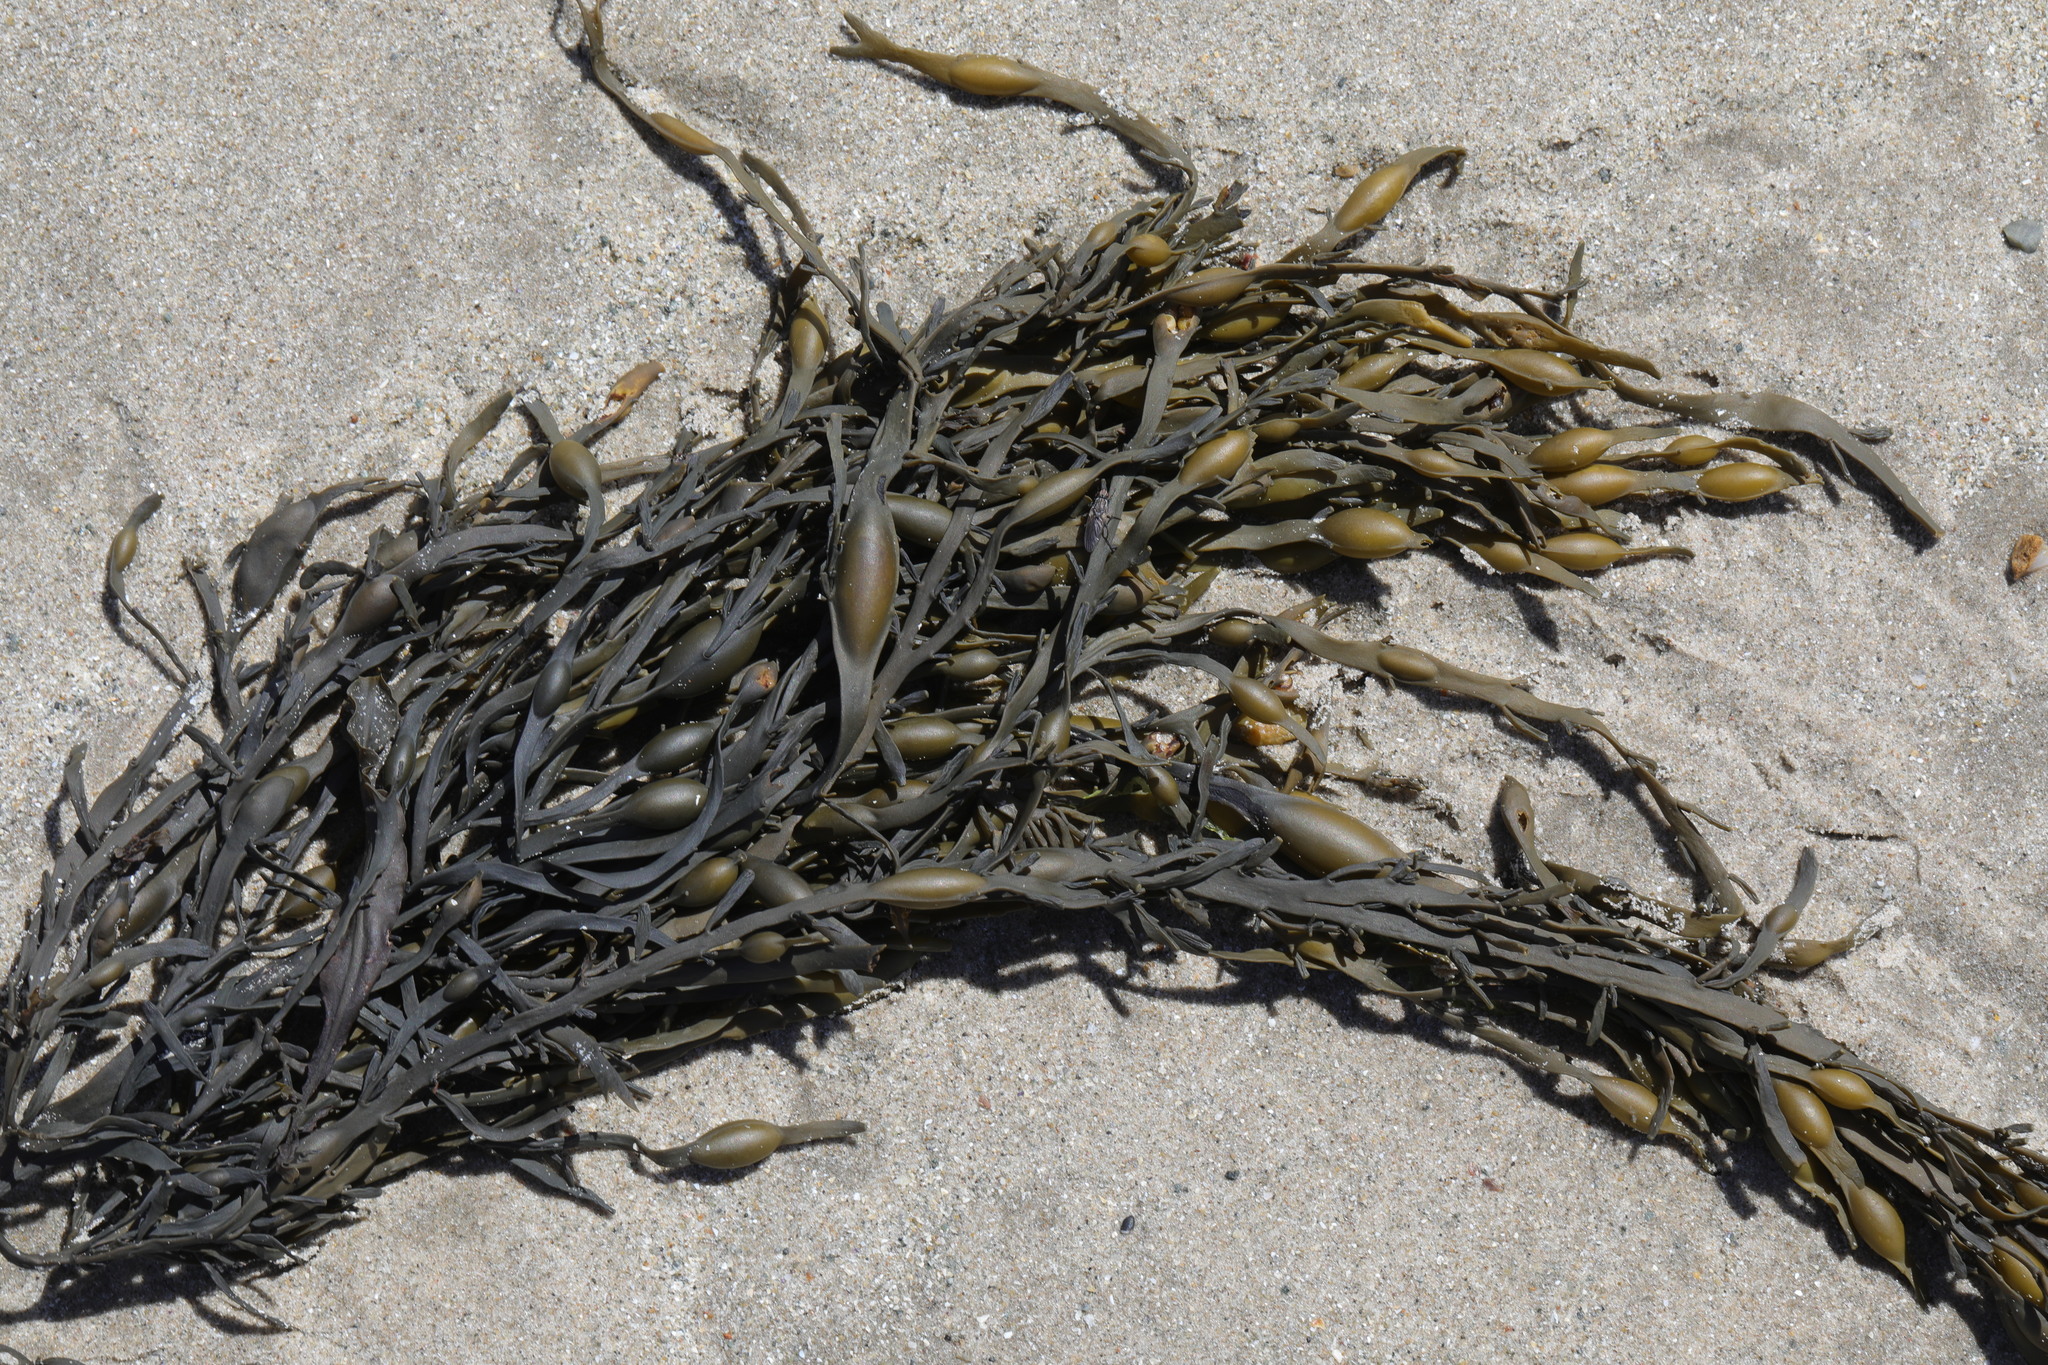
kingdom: Chromista
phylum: Ochrophyta
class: Phaeophyceae
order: Fucales
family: Fucaceae
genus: Ascophyllum
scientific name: Ascophyllum nodosum
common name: Knotted wrack
